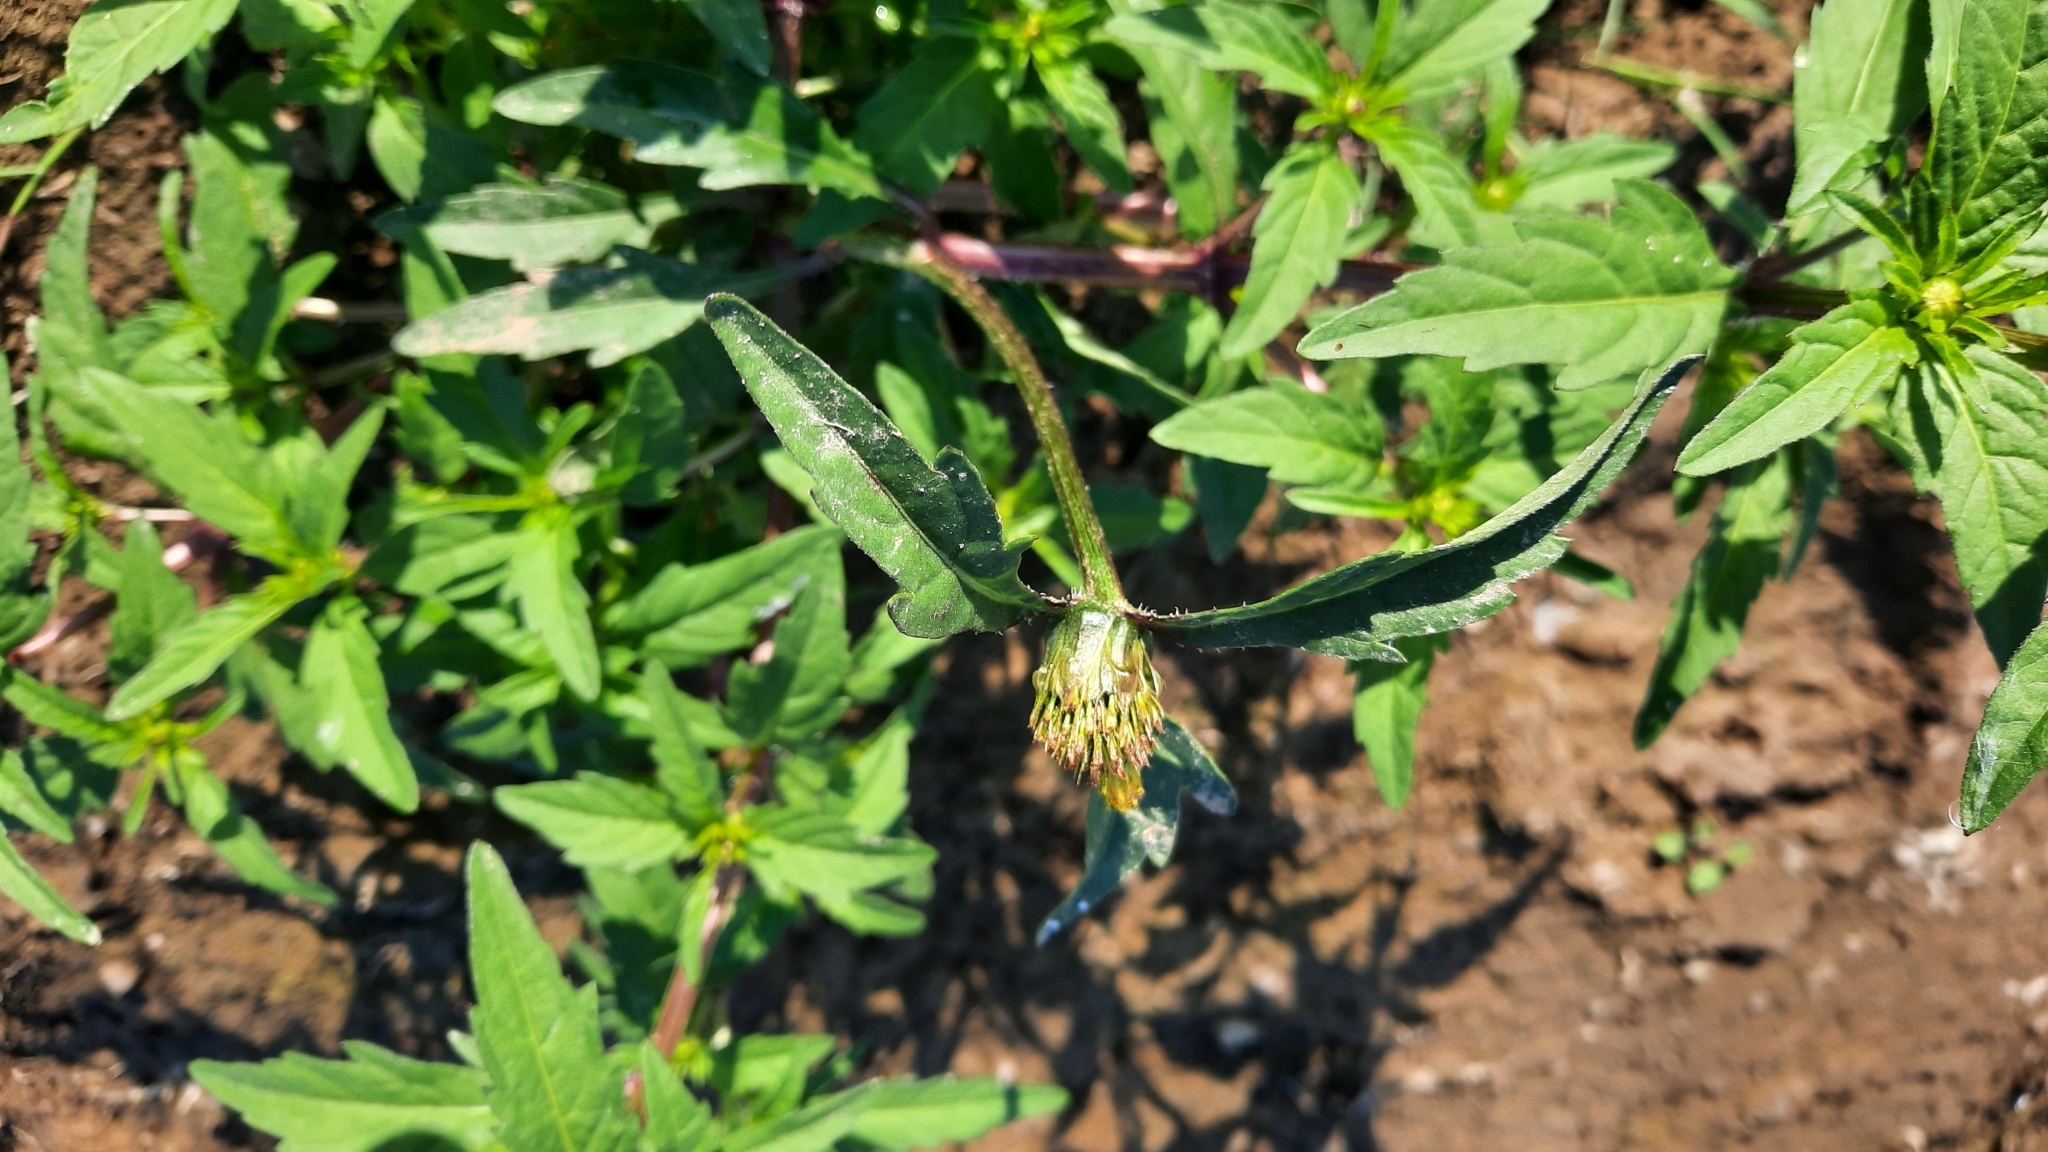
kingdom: Plantae
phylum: Tracheophyta
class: Magnoliopsida
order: Asterales
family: Asteraceae
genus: Bidens
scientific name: Bidens tripartita
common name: Trifid bur-marigold
